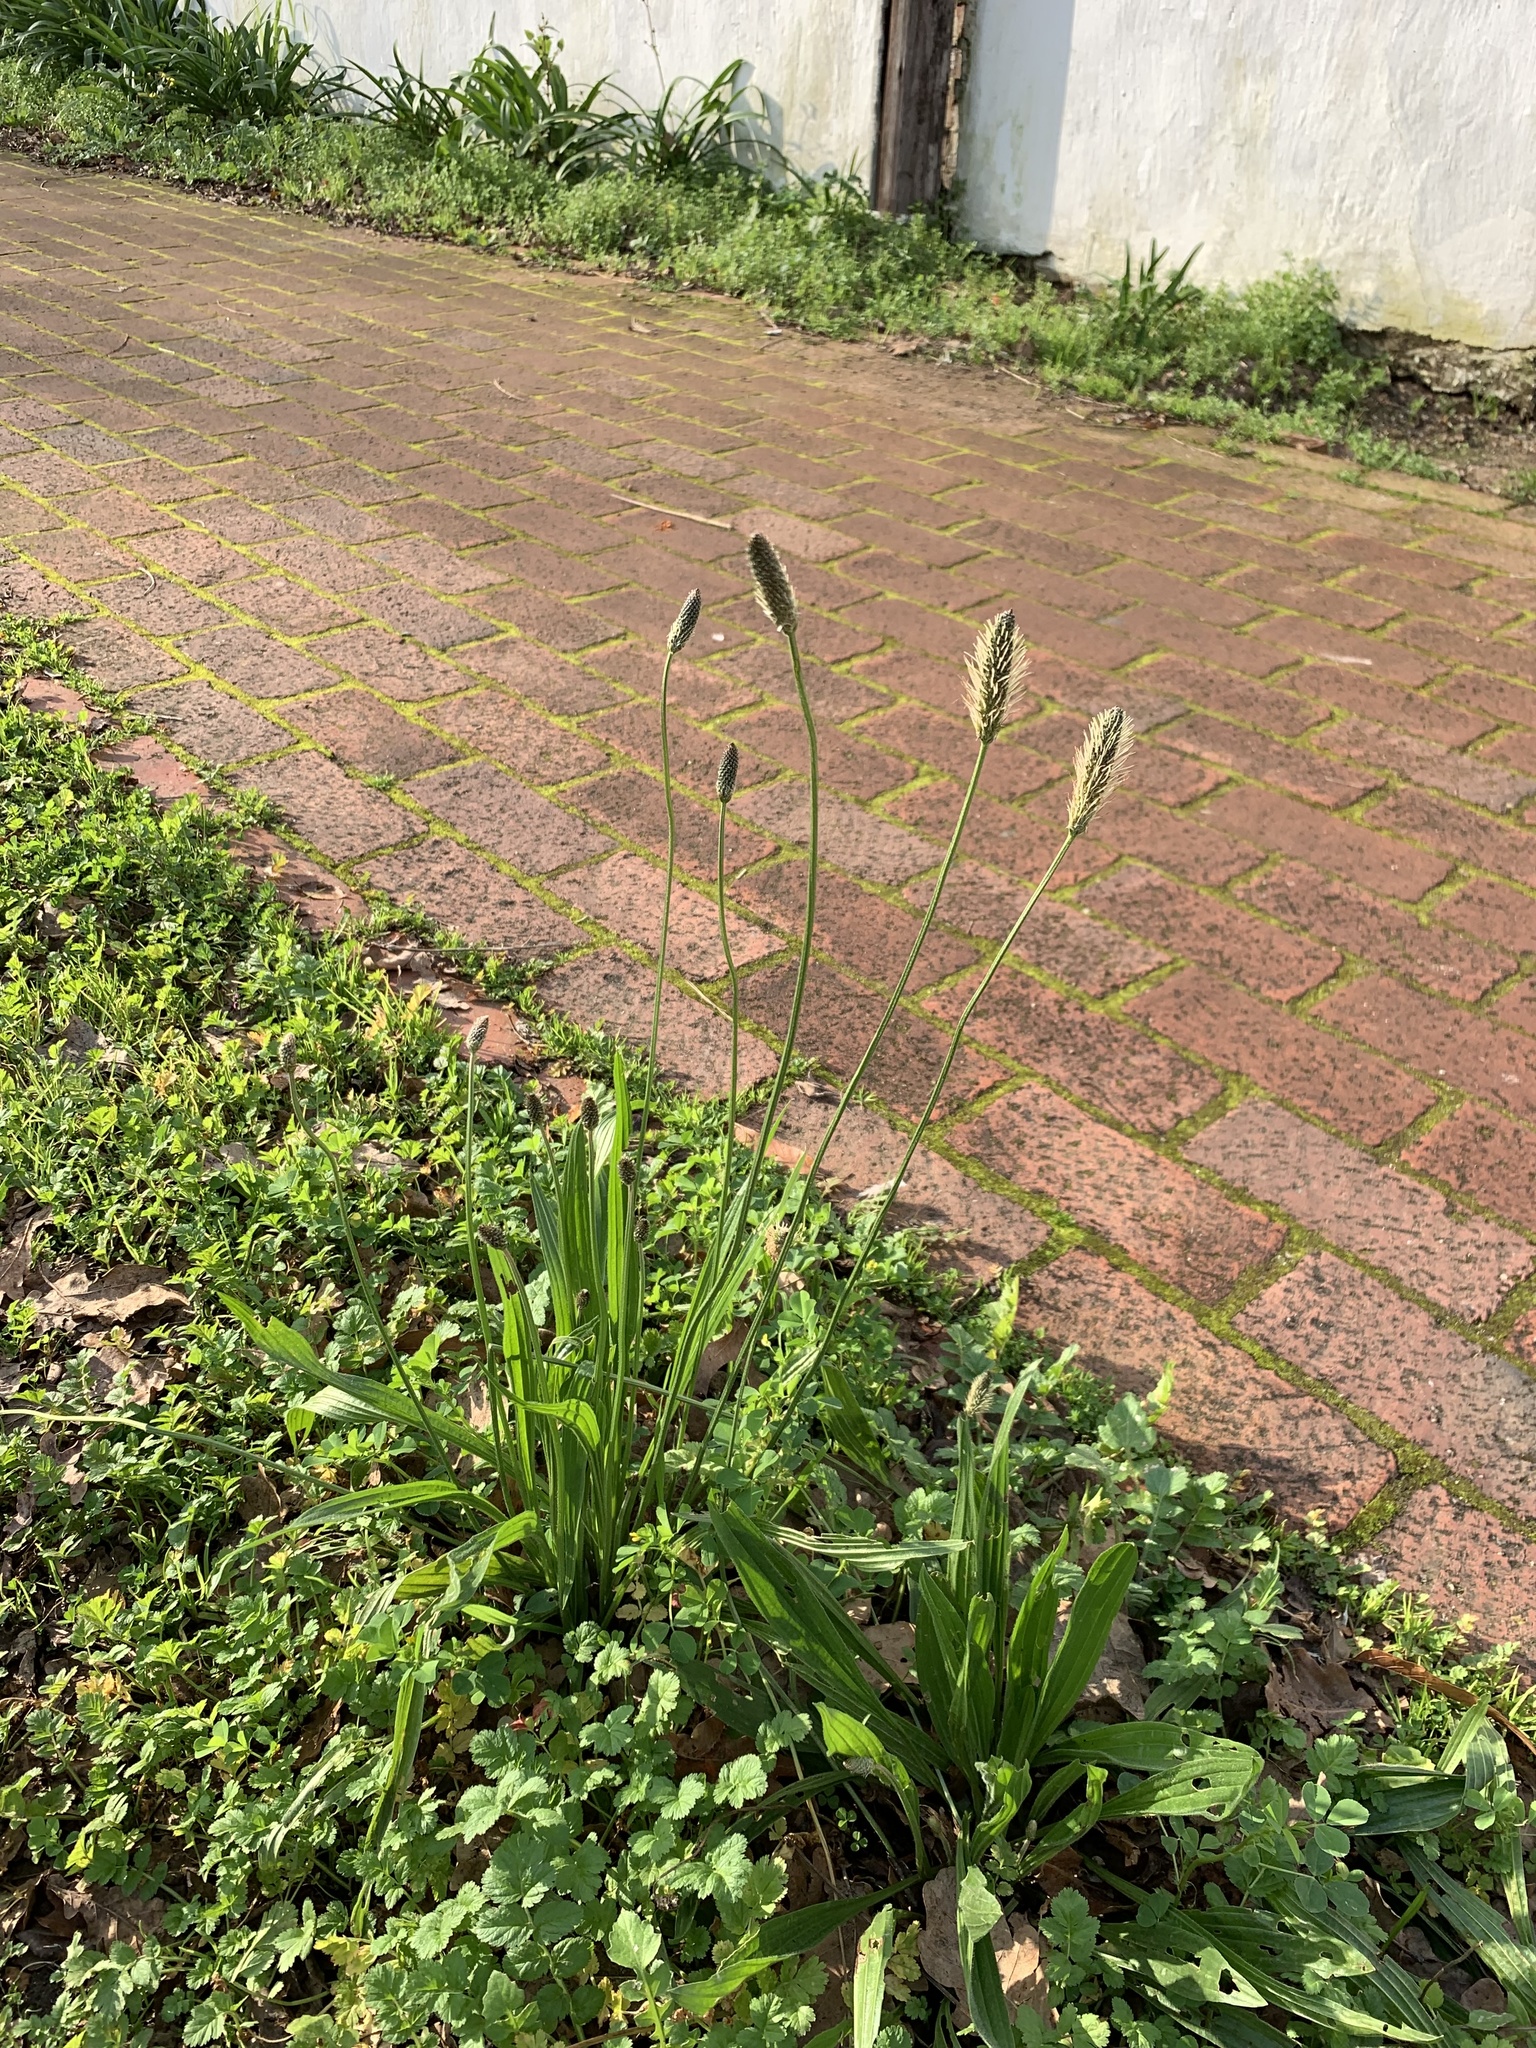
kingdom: Plantae
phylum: Tracheophyta
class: Magnoliopsida
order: Lamiales
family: Plantaginaceae
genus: Plantago
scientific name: Plantago lanceolata
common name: Ribwort plantain
